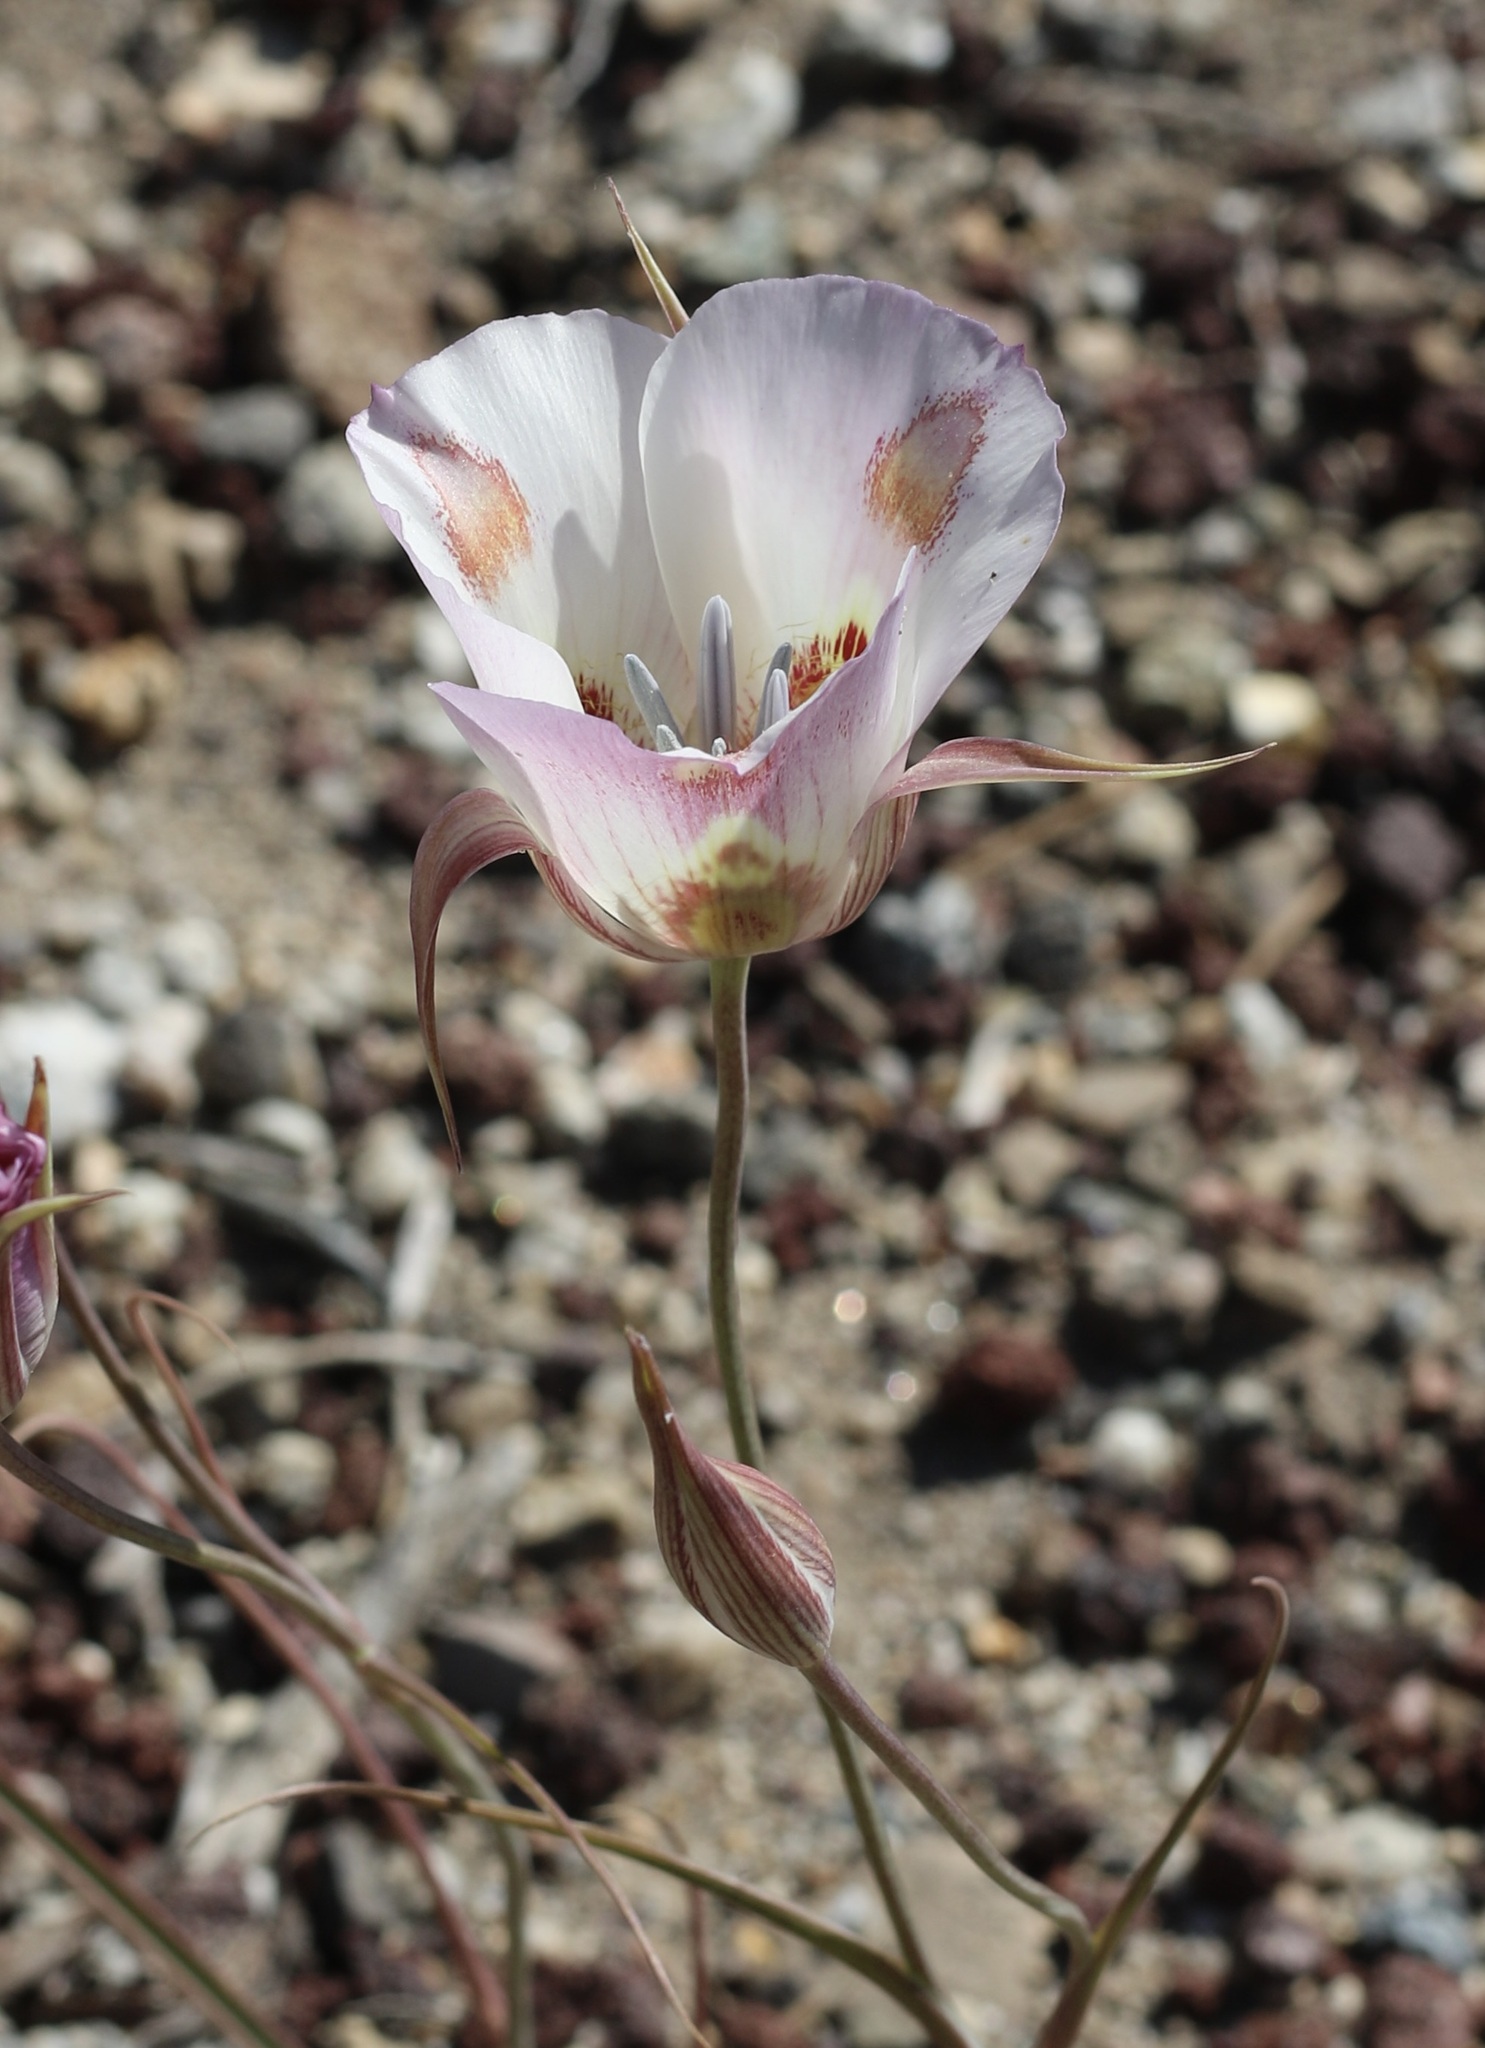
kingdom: Plantae
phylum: Tracheophyta
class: Liliopsida
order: Liliales
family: Liliaceae
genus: Calochortus
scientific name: Calochortus venustus
